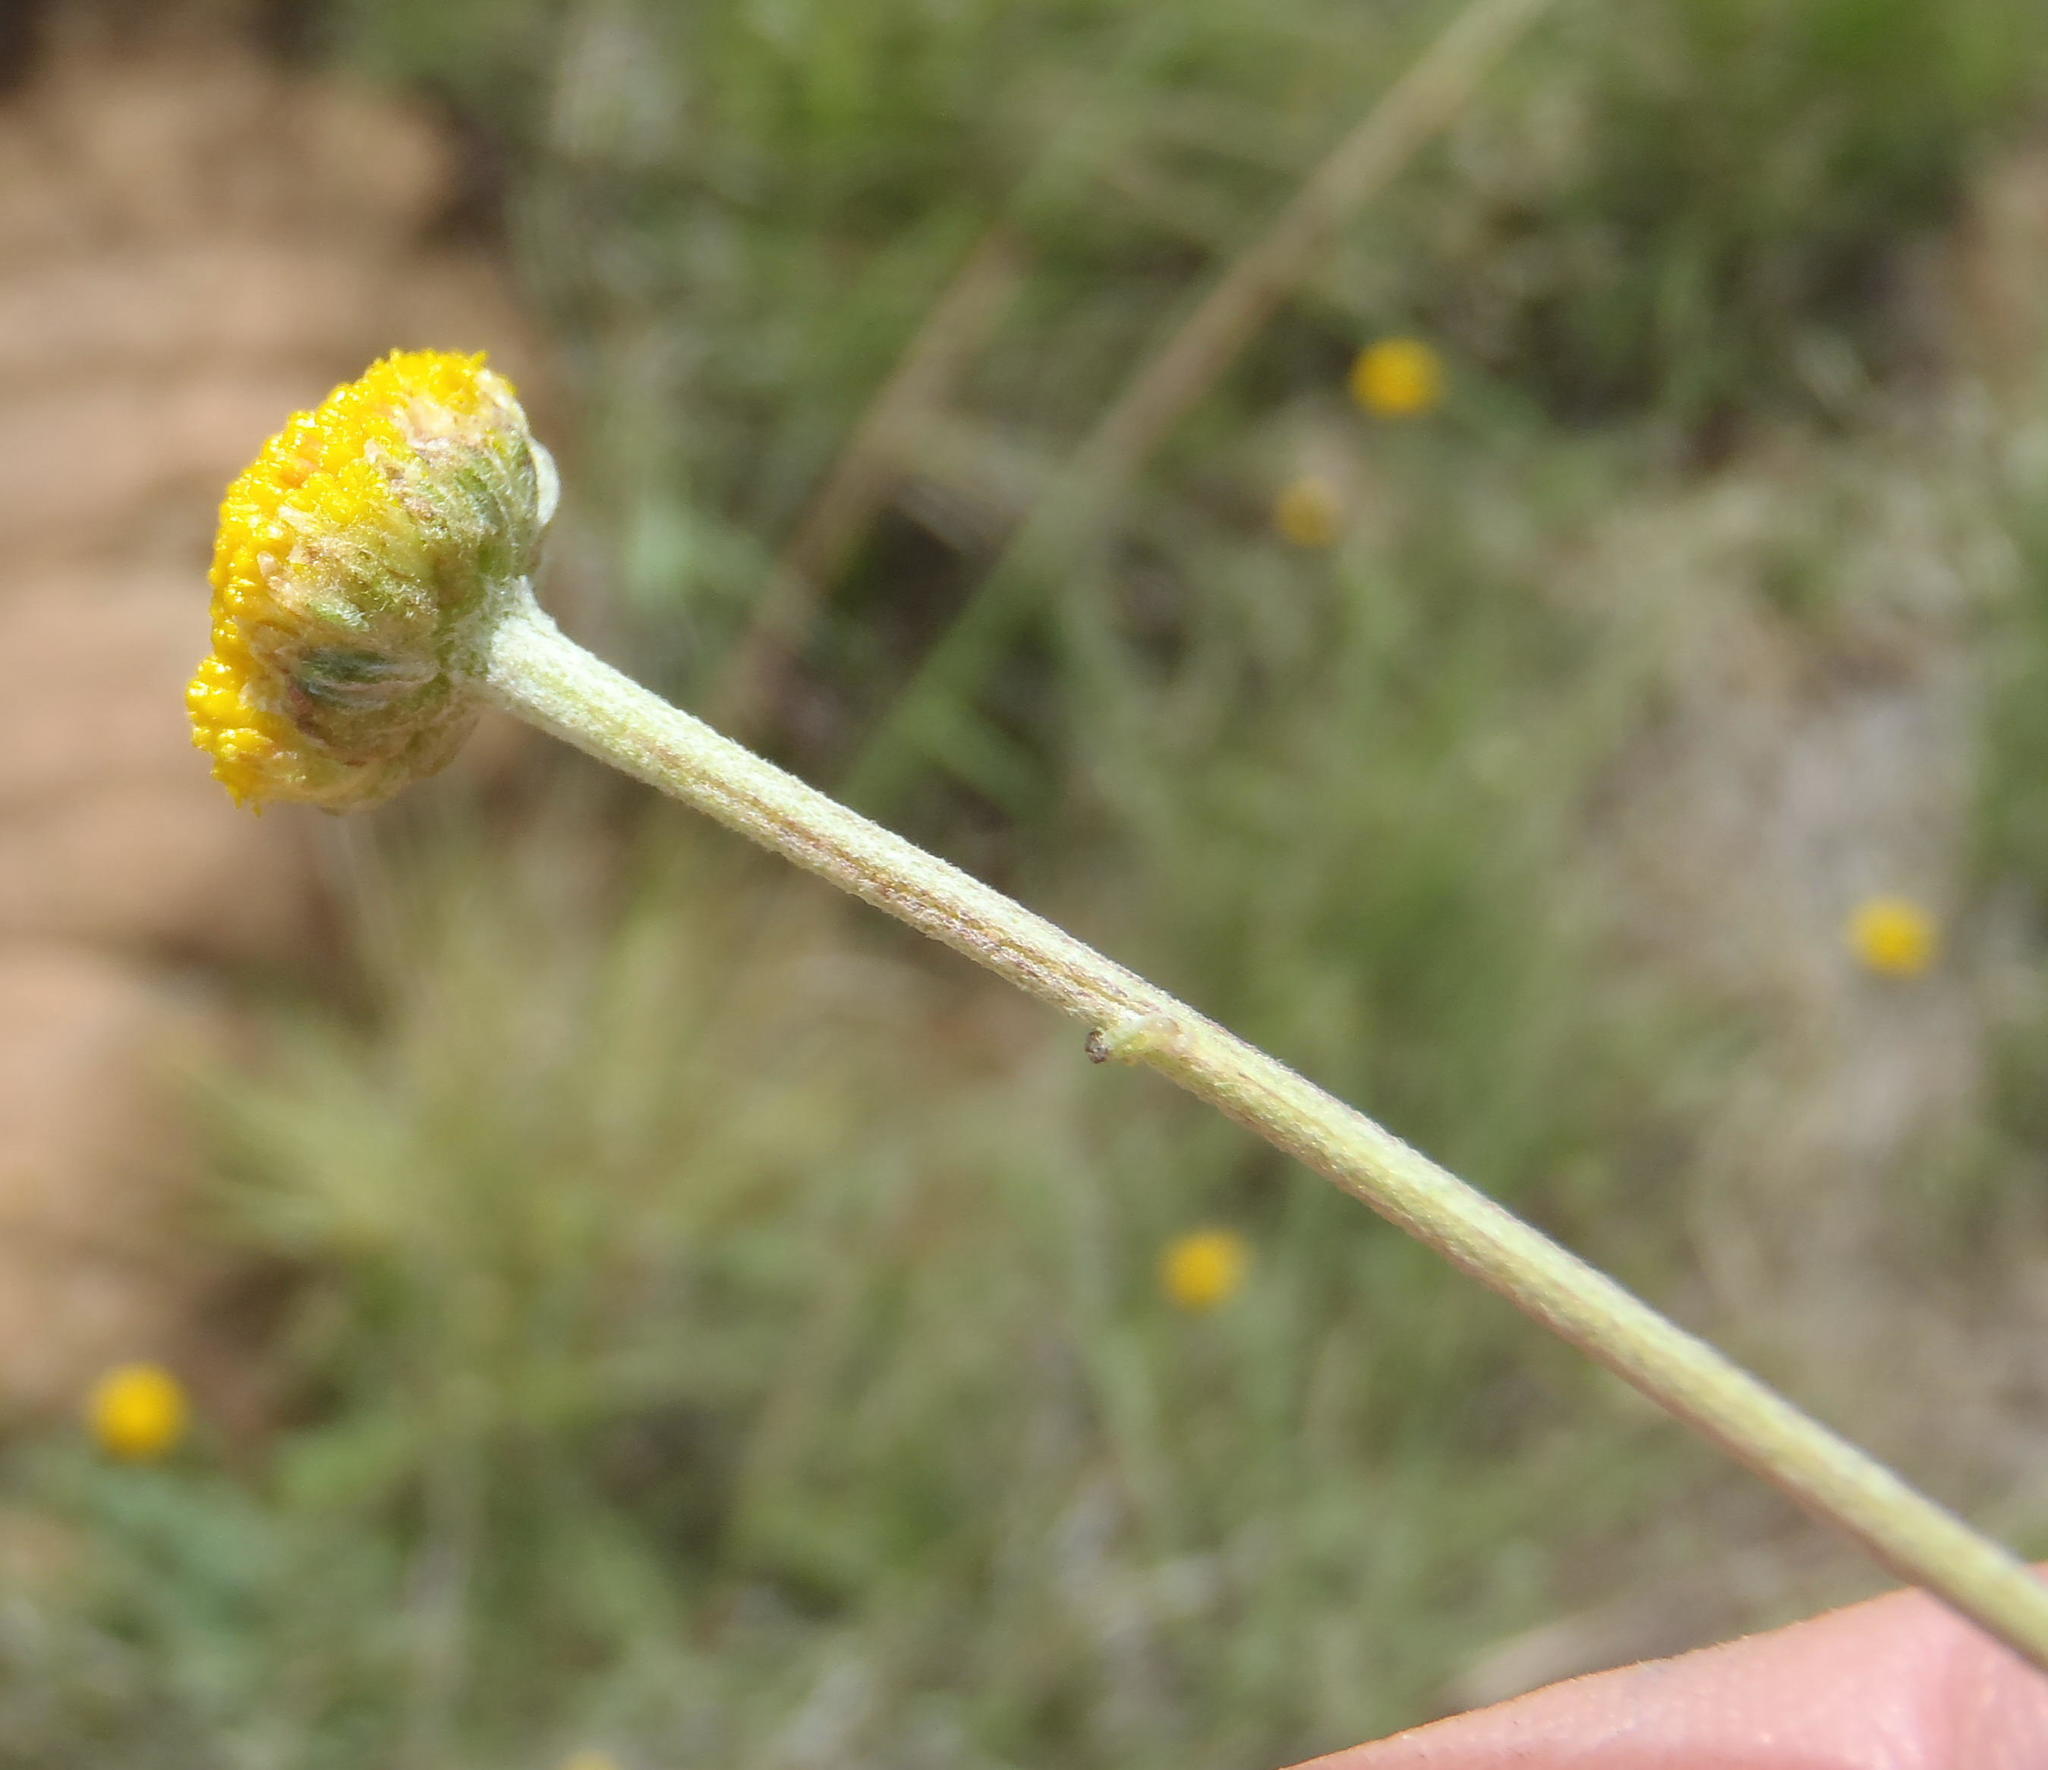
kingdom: Plantae
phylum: Tracheophyta
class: Magnoliopsida
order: Asterales
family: Asteraceae
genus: Pentzia
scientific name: Pentzia quinquefida
